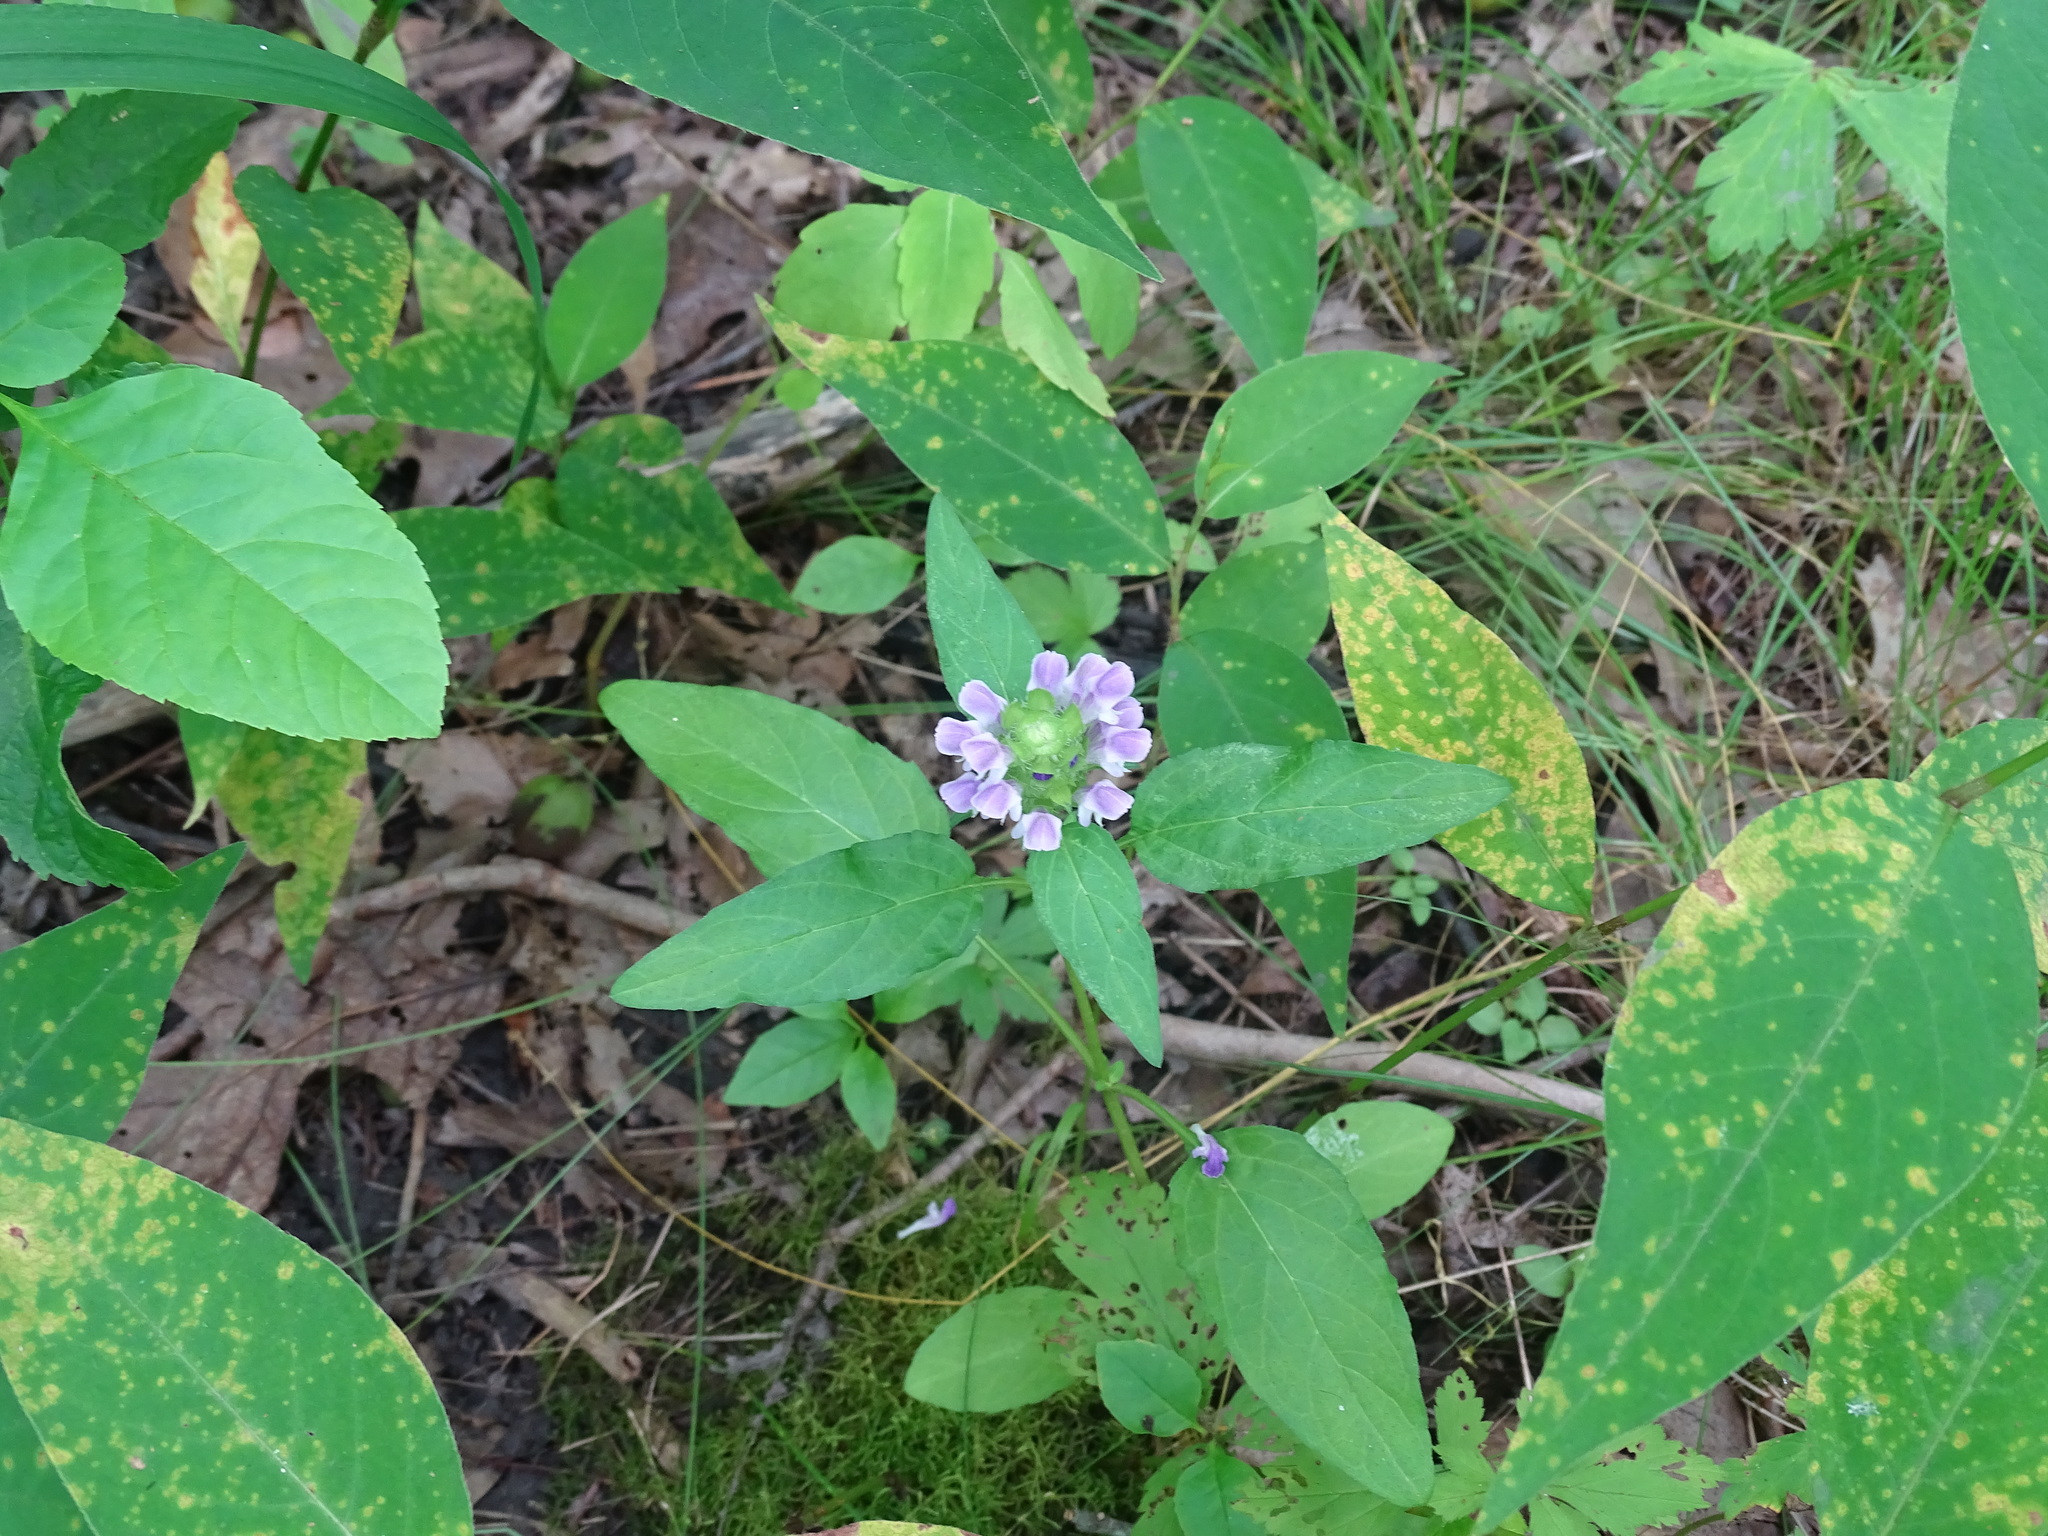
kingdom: Plantae
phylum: Tracheophyta
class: Magnoliopsida
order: Lamiales
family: Lamiaceae
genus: Prunella
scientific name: Prunella vulgaris
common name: Heal-all
